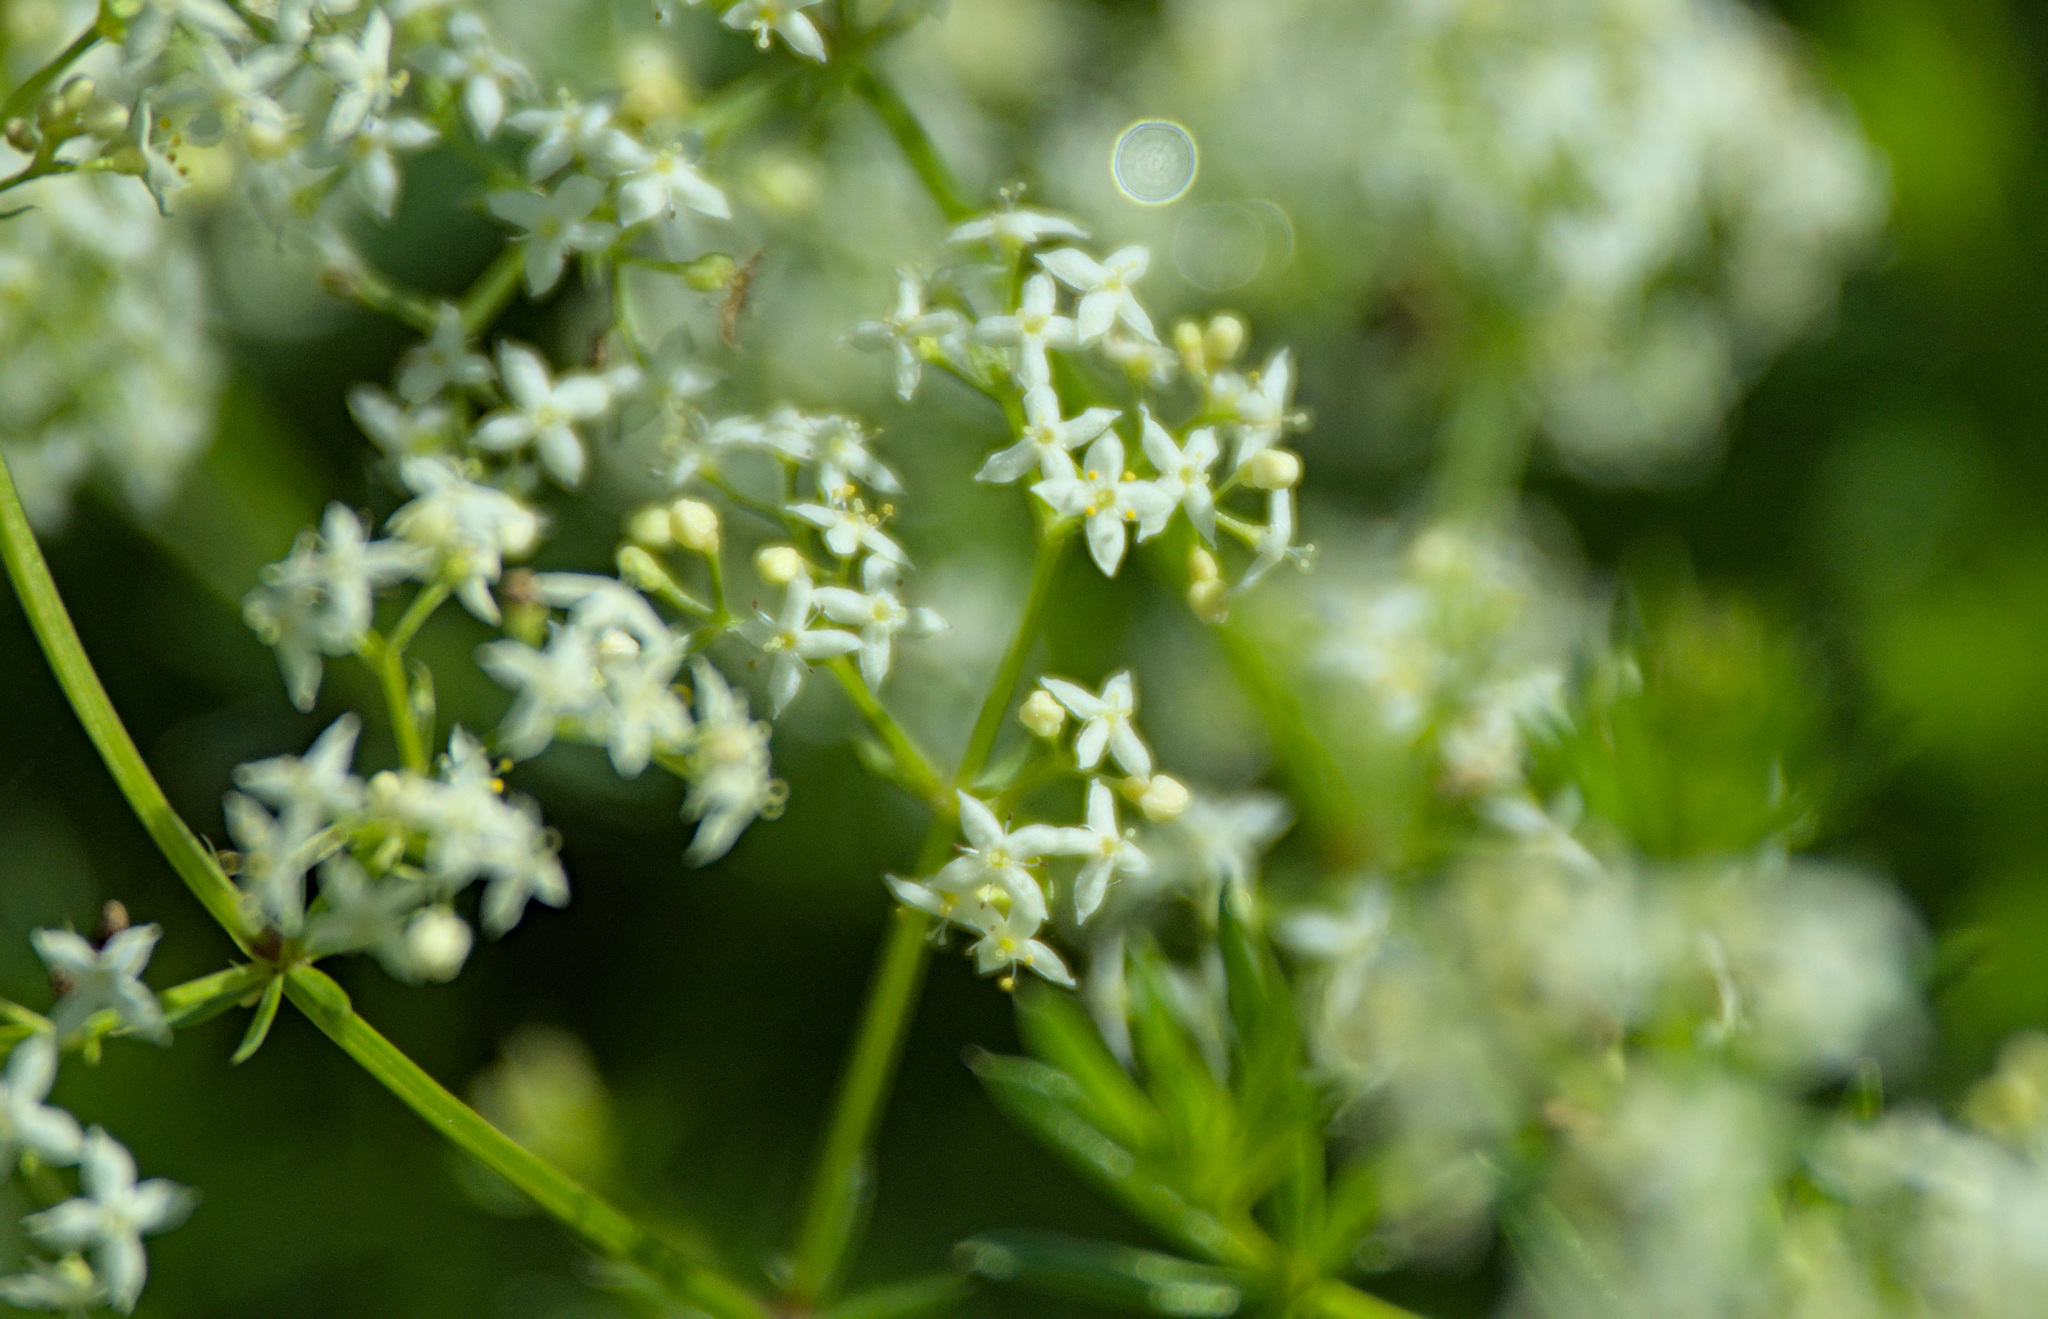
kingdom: Plantae
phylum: Tracheophyta
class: Magnoliopsida
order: Gentianales
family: Rubiaceae
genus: Galium
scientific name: Galium mollugo
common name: Hedge bedstraw
